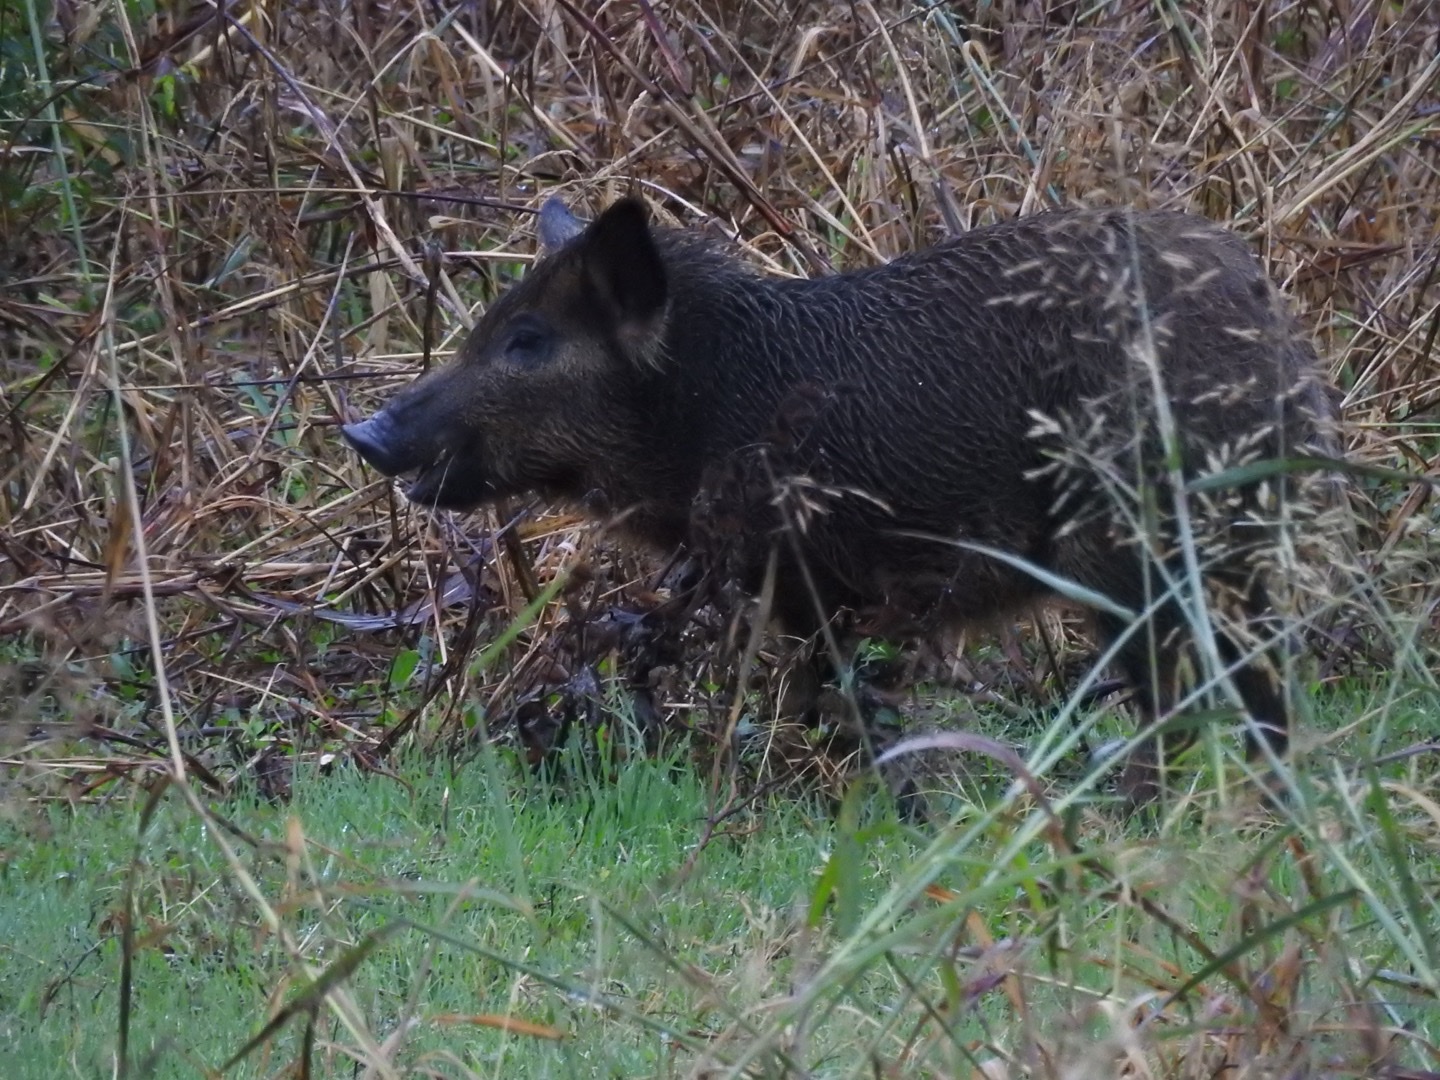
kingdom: Animalia
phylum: Chordata
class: Mammalia
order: Artiodactyla
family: Suidae
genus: Sus
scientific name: Sus scrofa
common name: Wild boar
